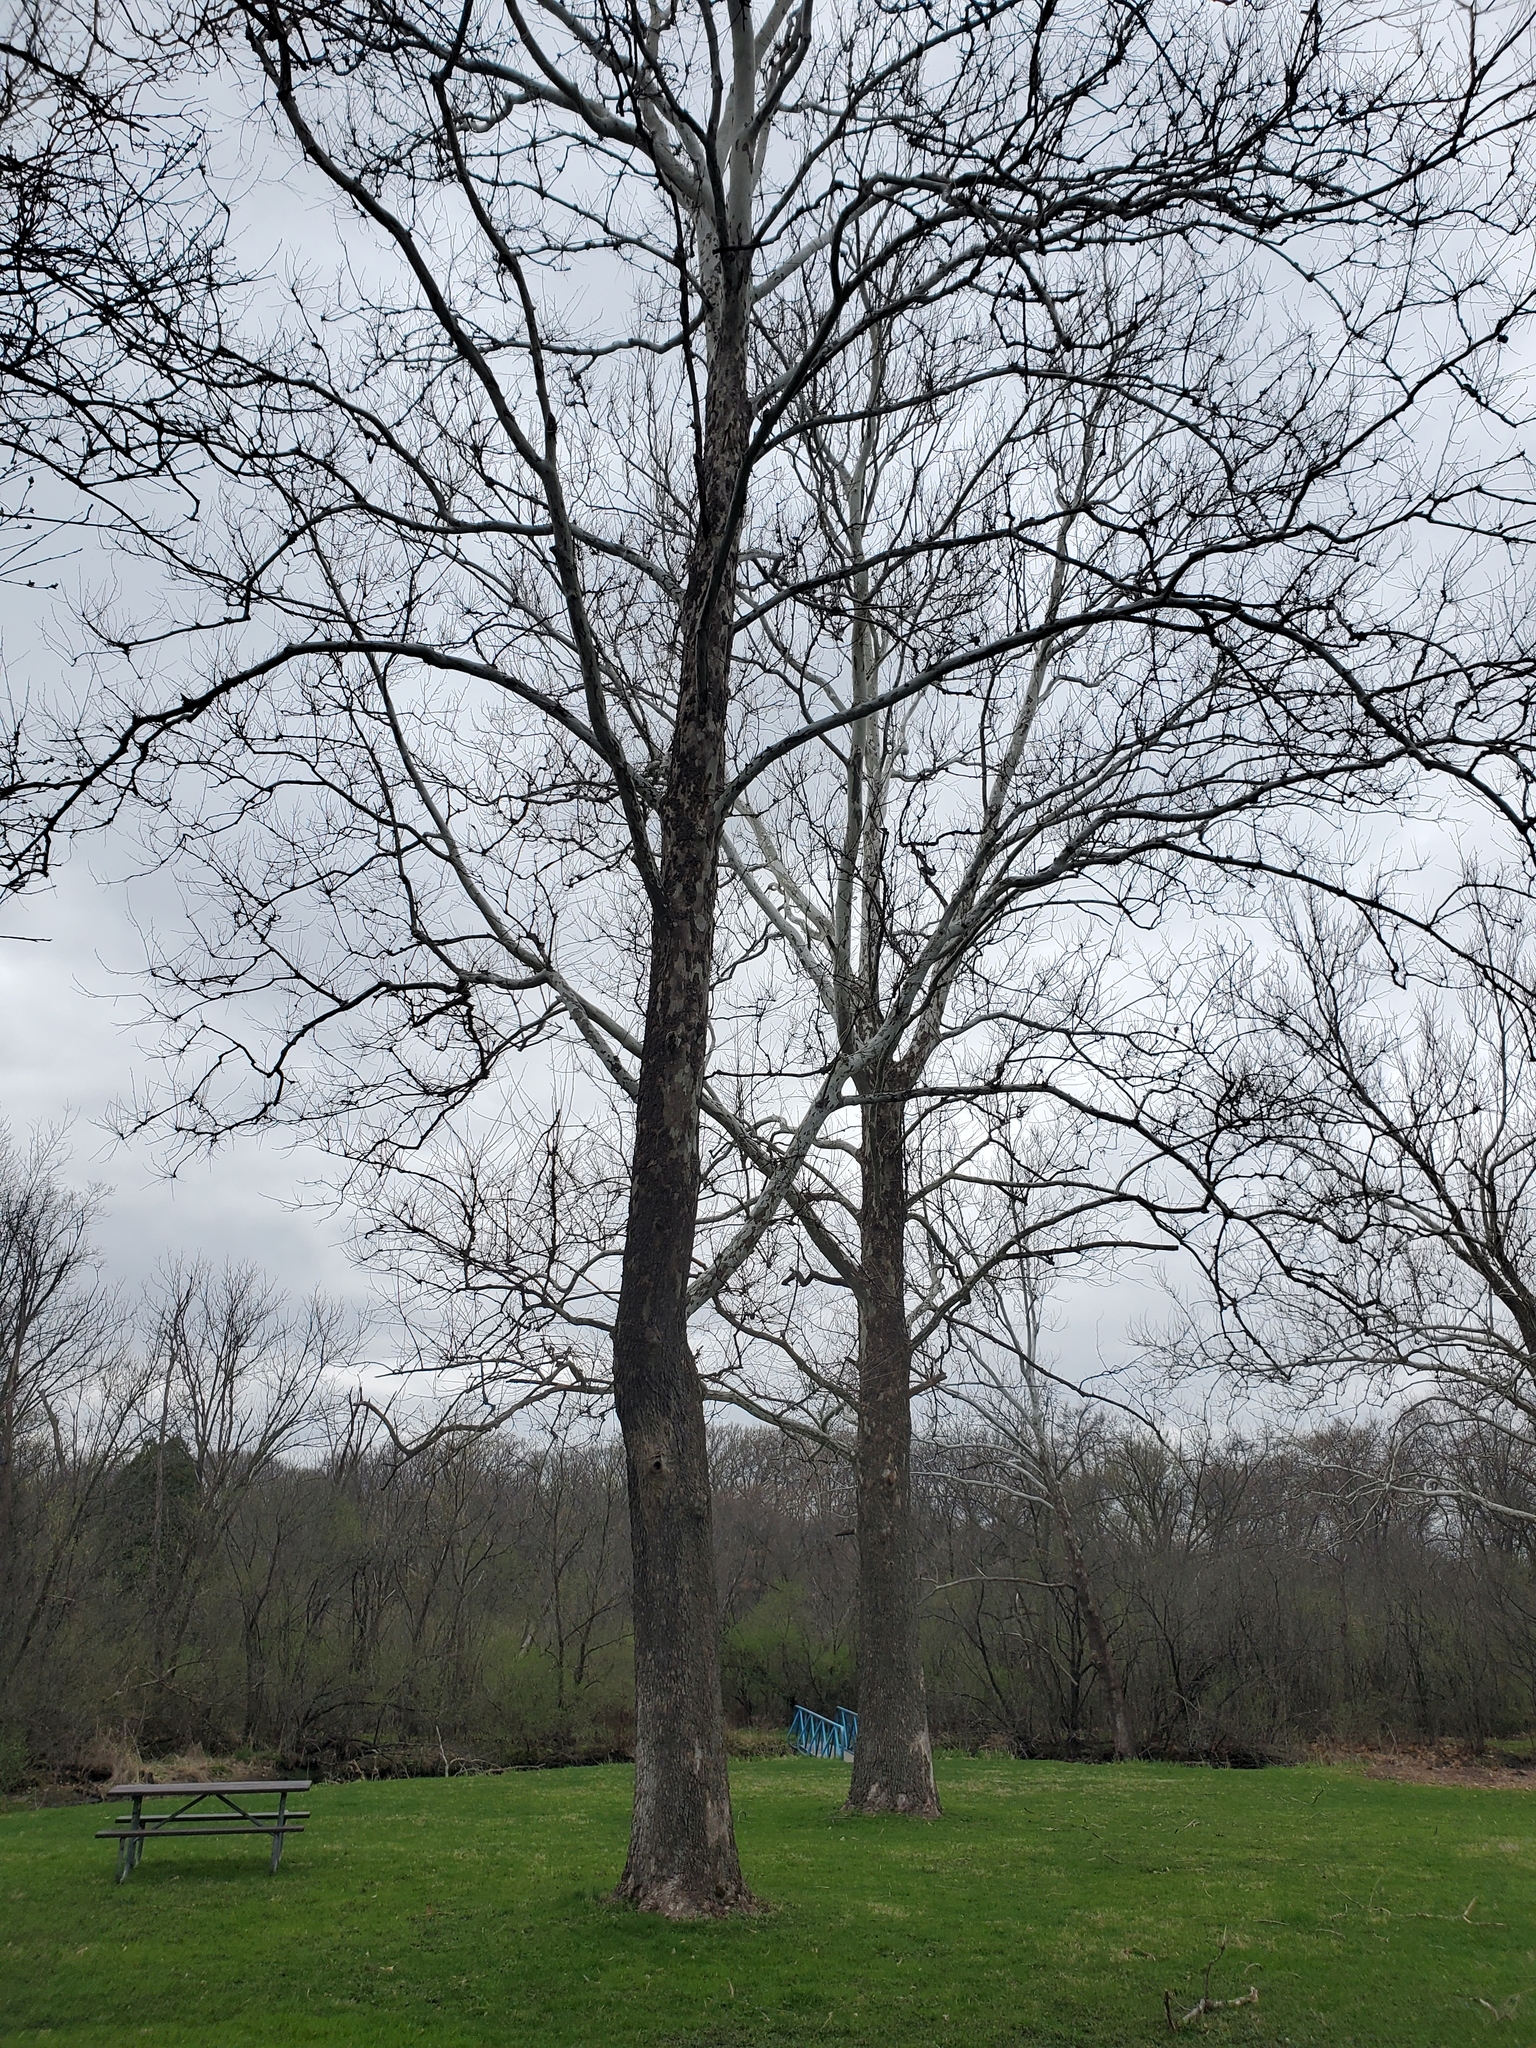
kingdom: Plantae
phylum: Tracheophyta
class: Magnoliopsida
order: Proteales
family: Platanaceae
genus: Platanus
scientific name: Platanus occidentalis
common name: American sycamore
